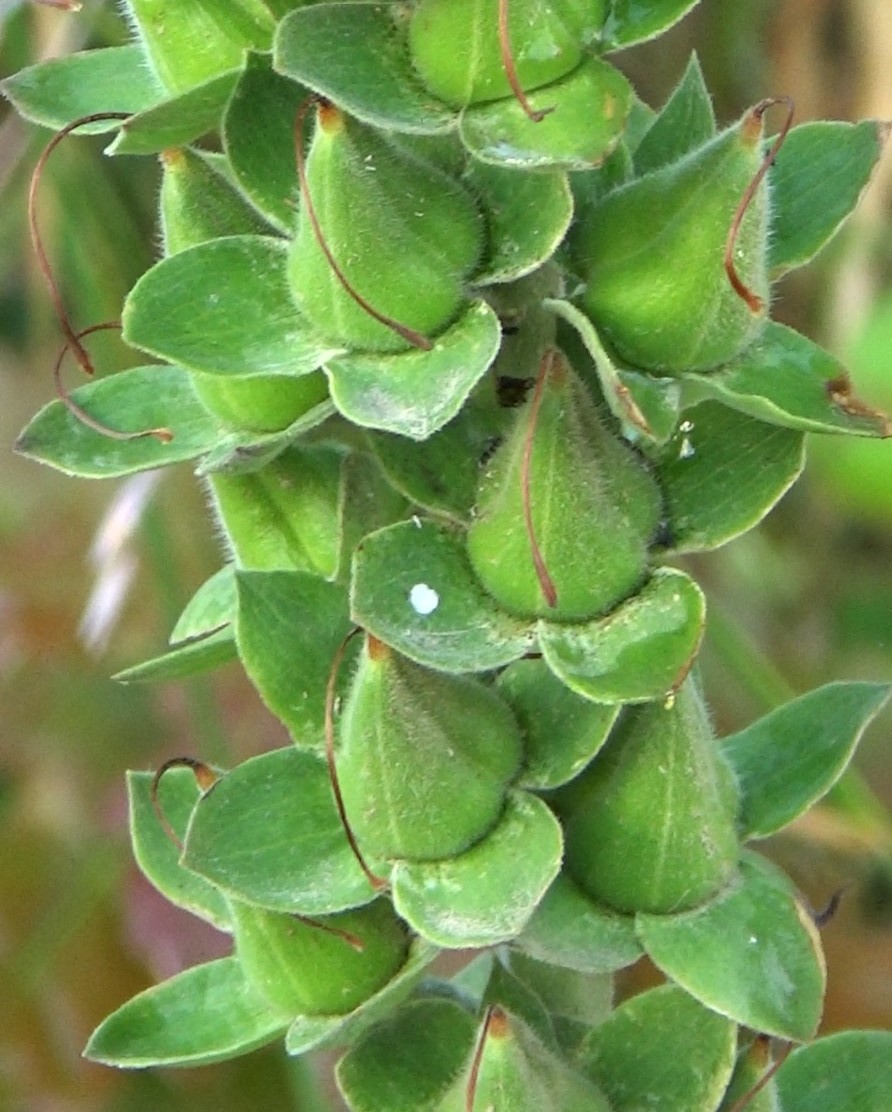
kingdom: Plantae
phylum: Tracheophyta
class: Magnoliopsida
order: Lamiales
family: Plantaginaceae
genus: Digitalis
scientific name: Digitalis purpurea
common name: Foxglove
